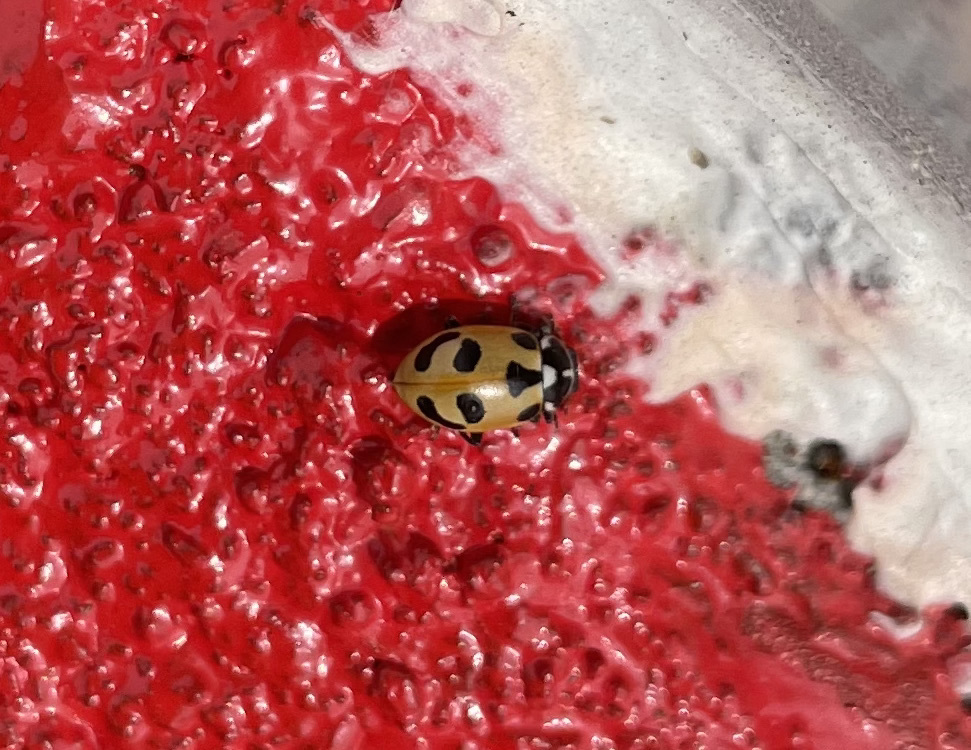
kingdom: Animalia
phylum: Arthropoda
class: Insecta
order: Coleoptera
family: Coccinellidae
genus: Hippodamia
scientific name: Hippodamia parenthesis
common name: Parenthesis lady beetle
